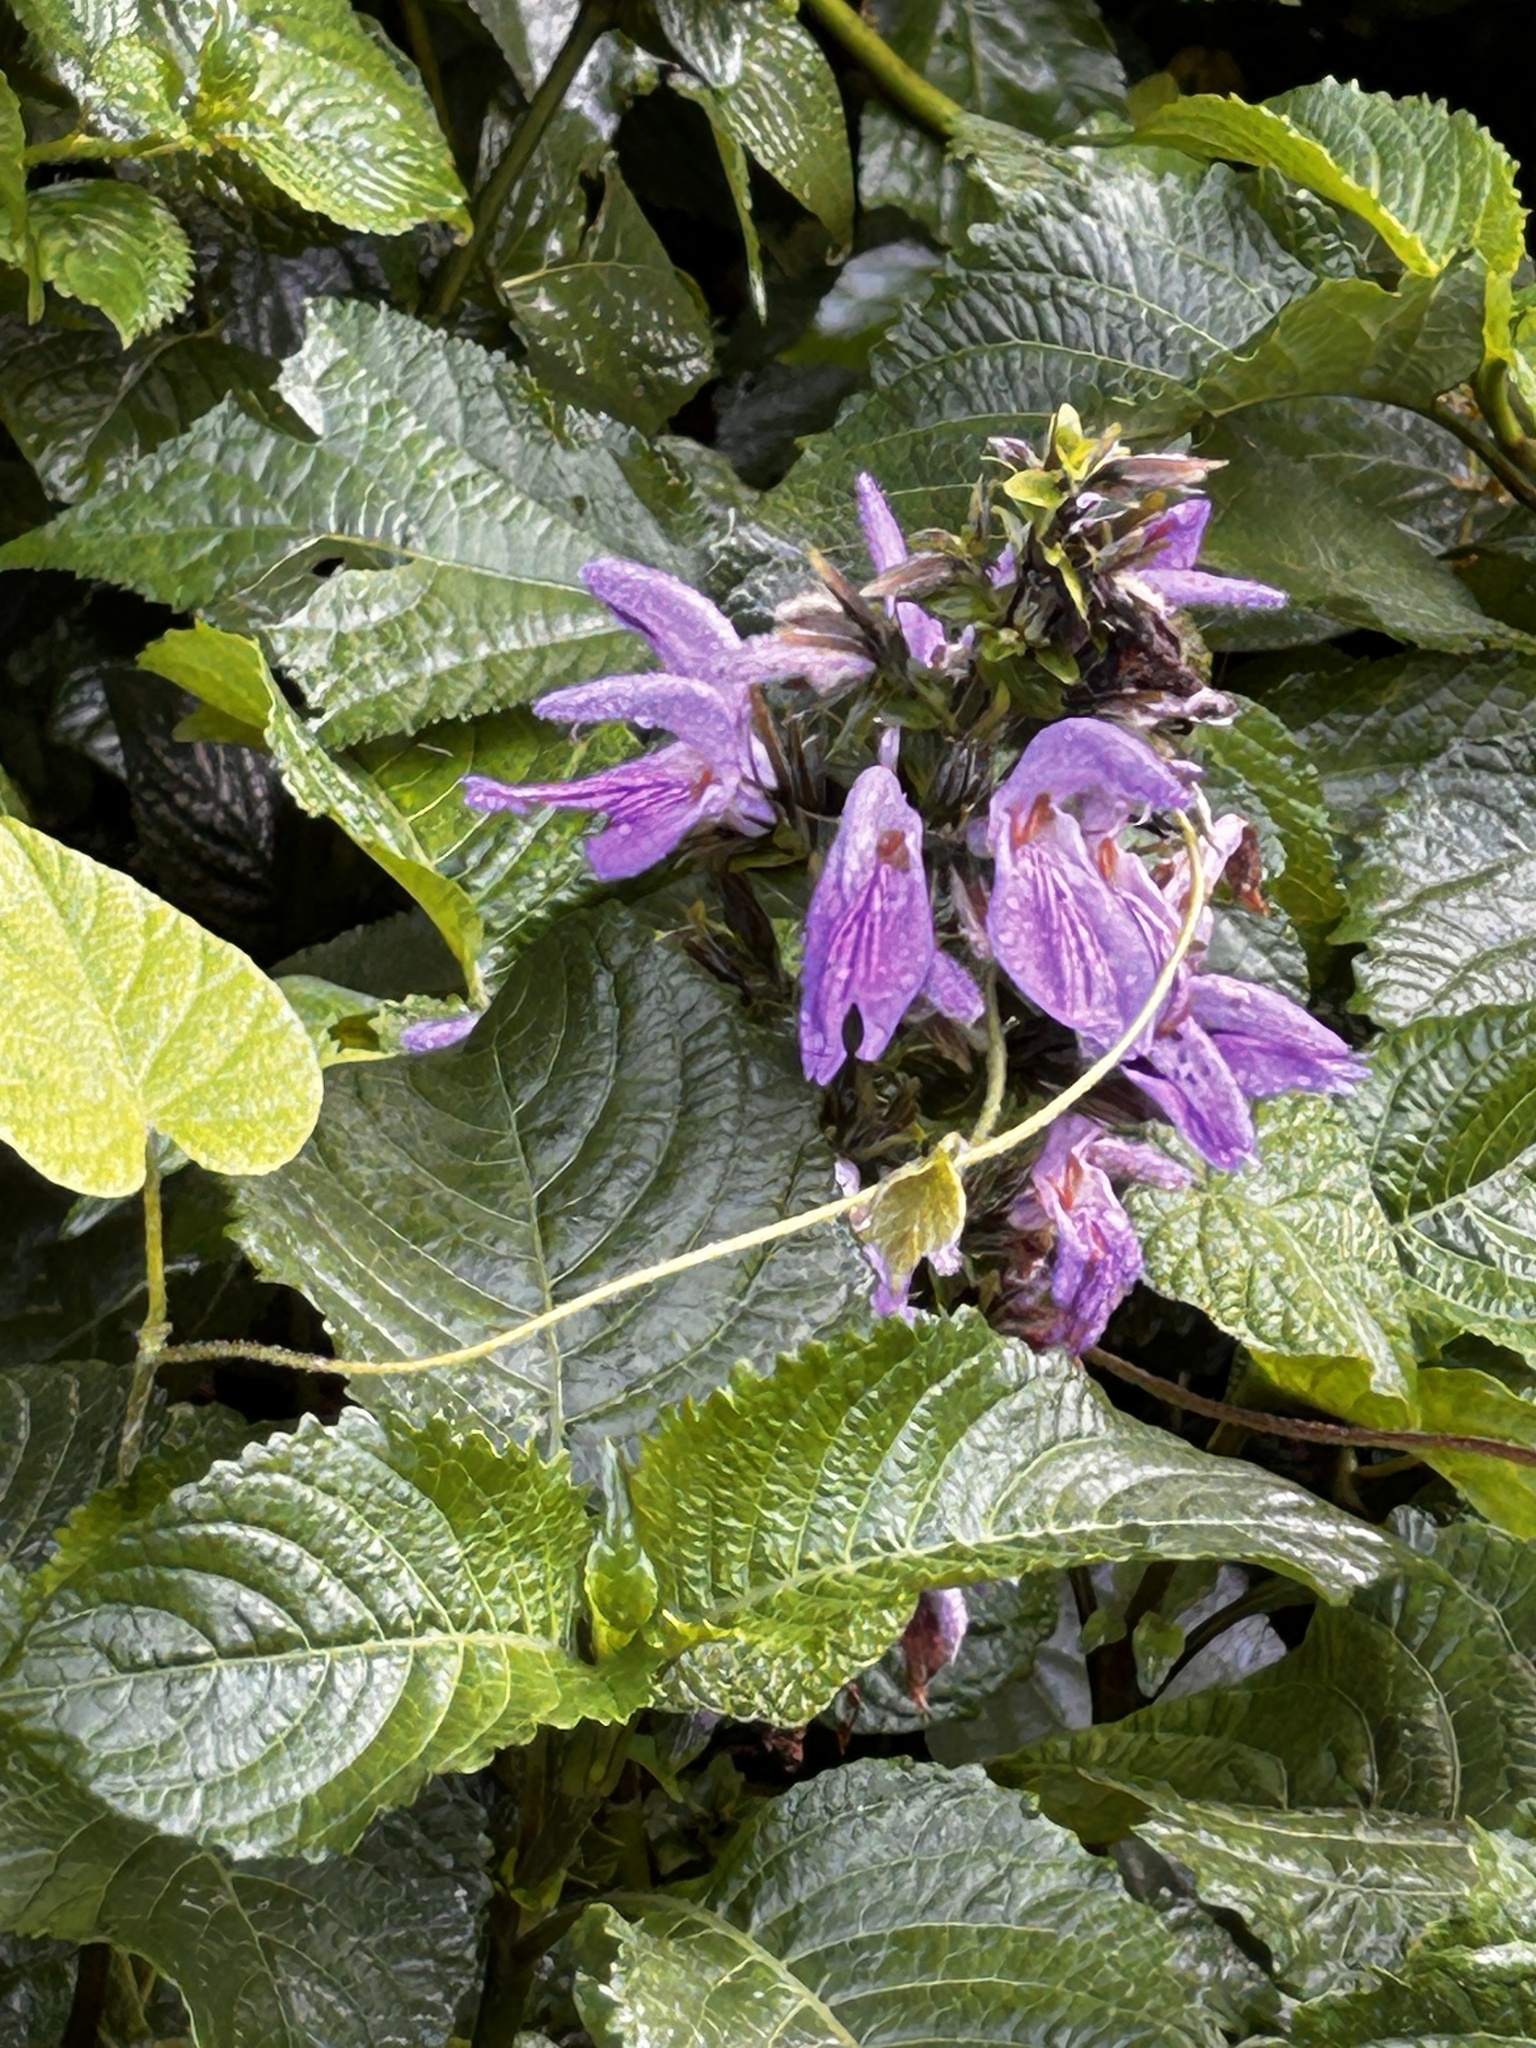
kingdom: Plantae
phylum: Tracheophyta
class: Magnoliopsida
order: Lamiales
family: Acanthaceae
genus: Brillantaisia
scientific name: Brillantaisia owariensis
